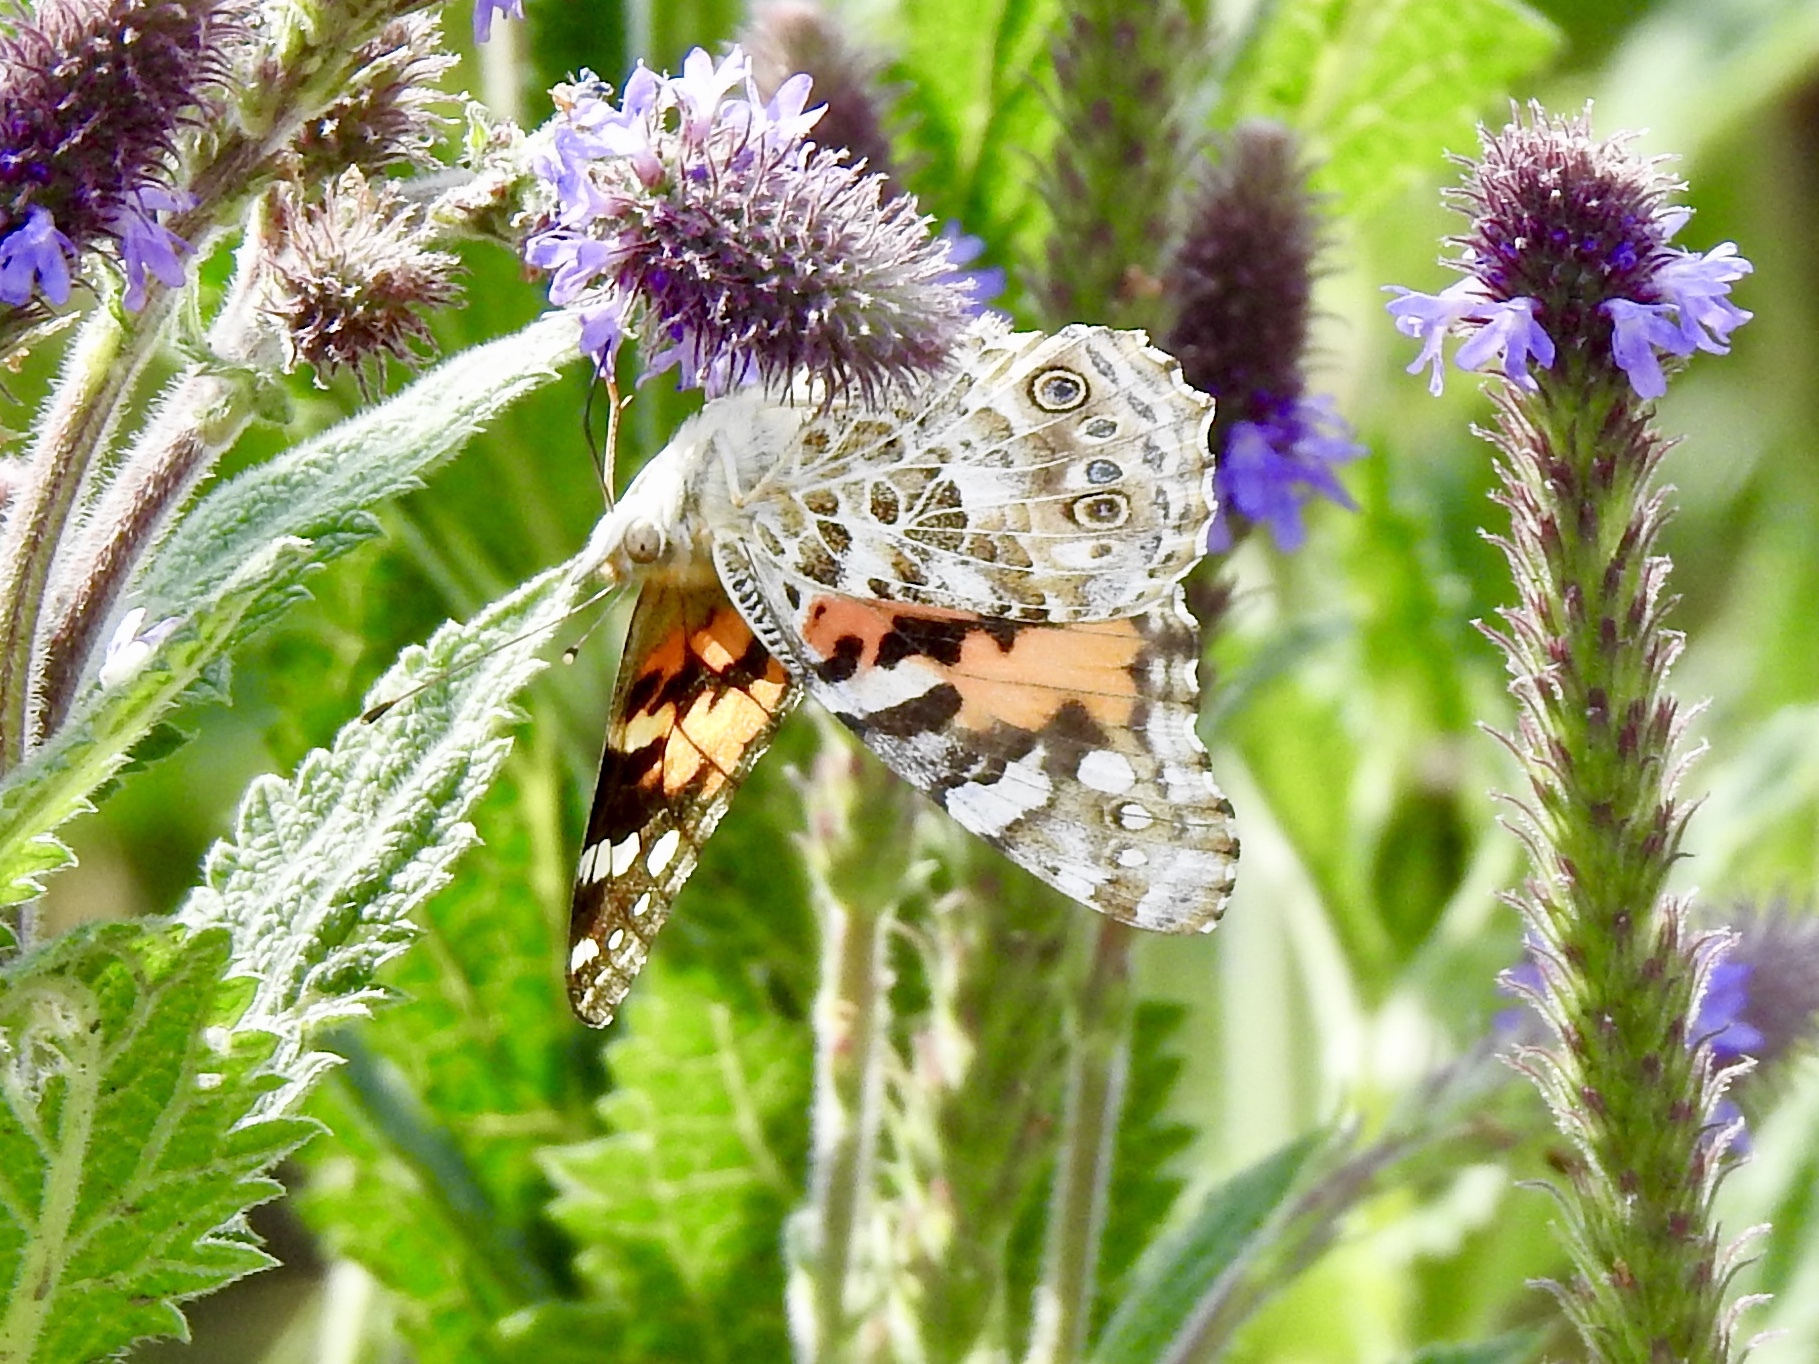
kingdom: Animalia
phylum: Arthropoda
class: Insecta
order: Lepidoptera
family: Nymphalidae
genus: Vanessa
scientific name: Vanessa cardui
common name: Painted lady
